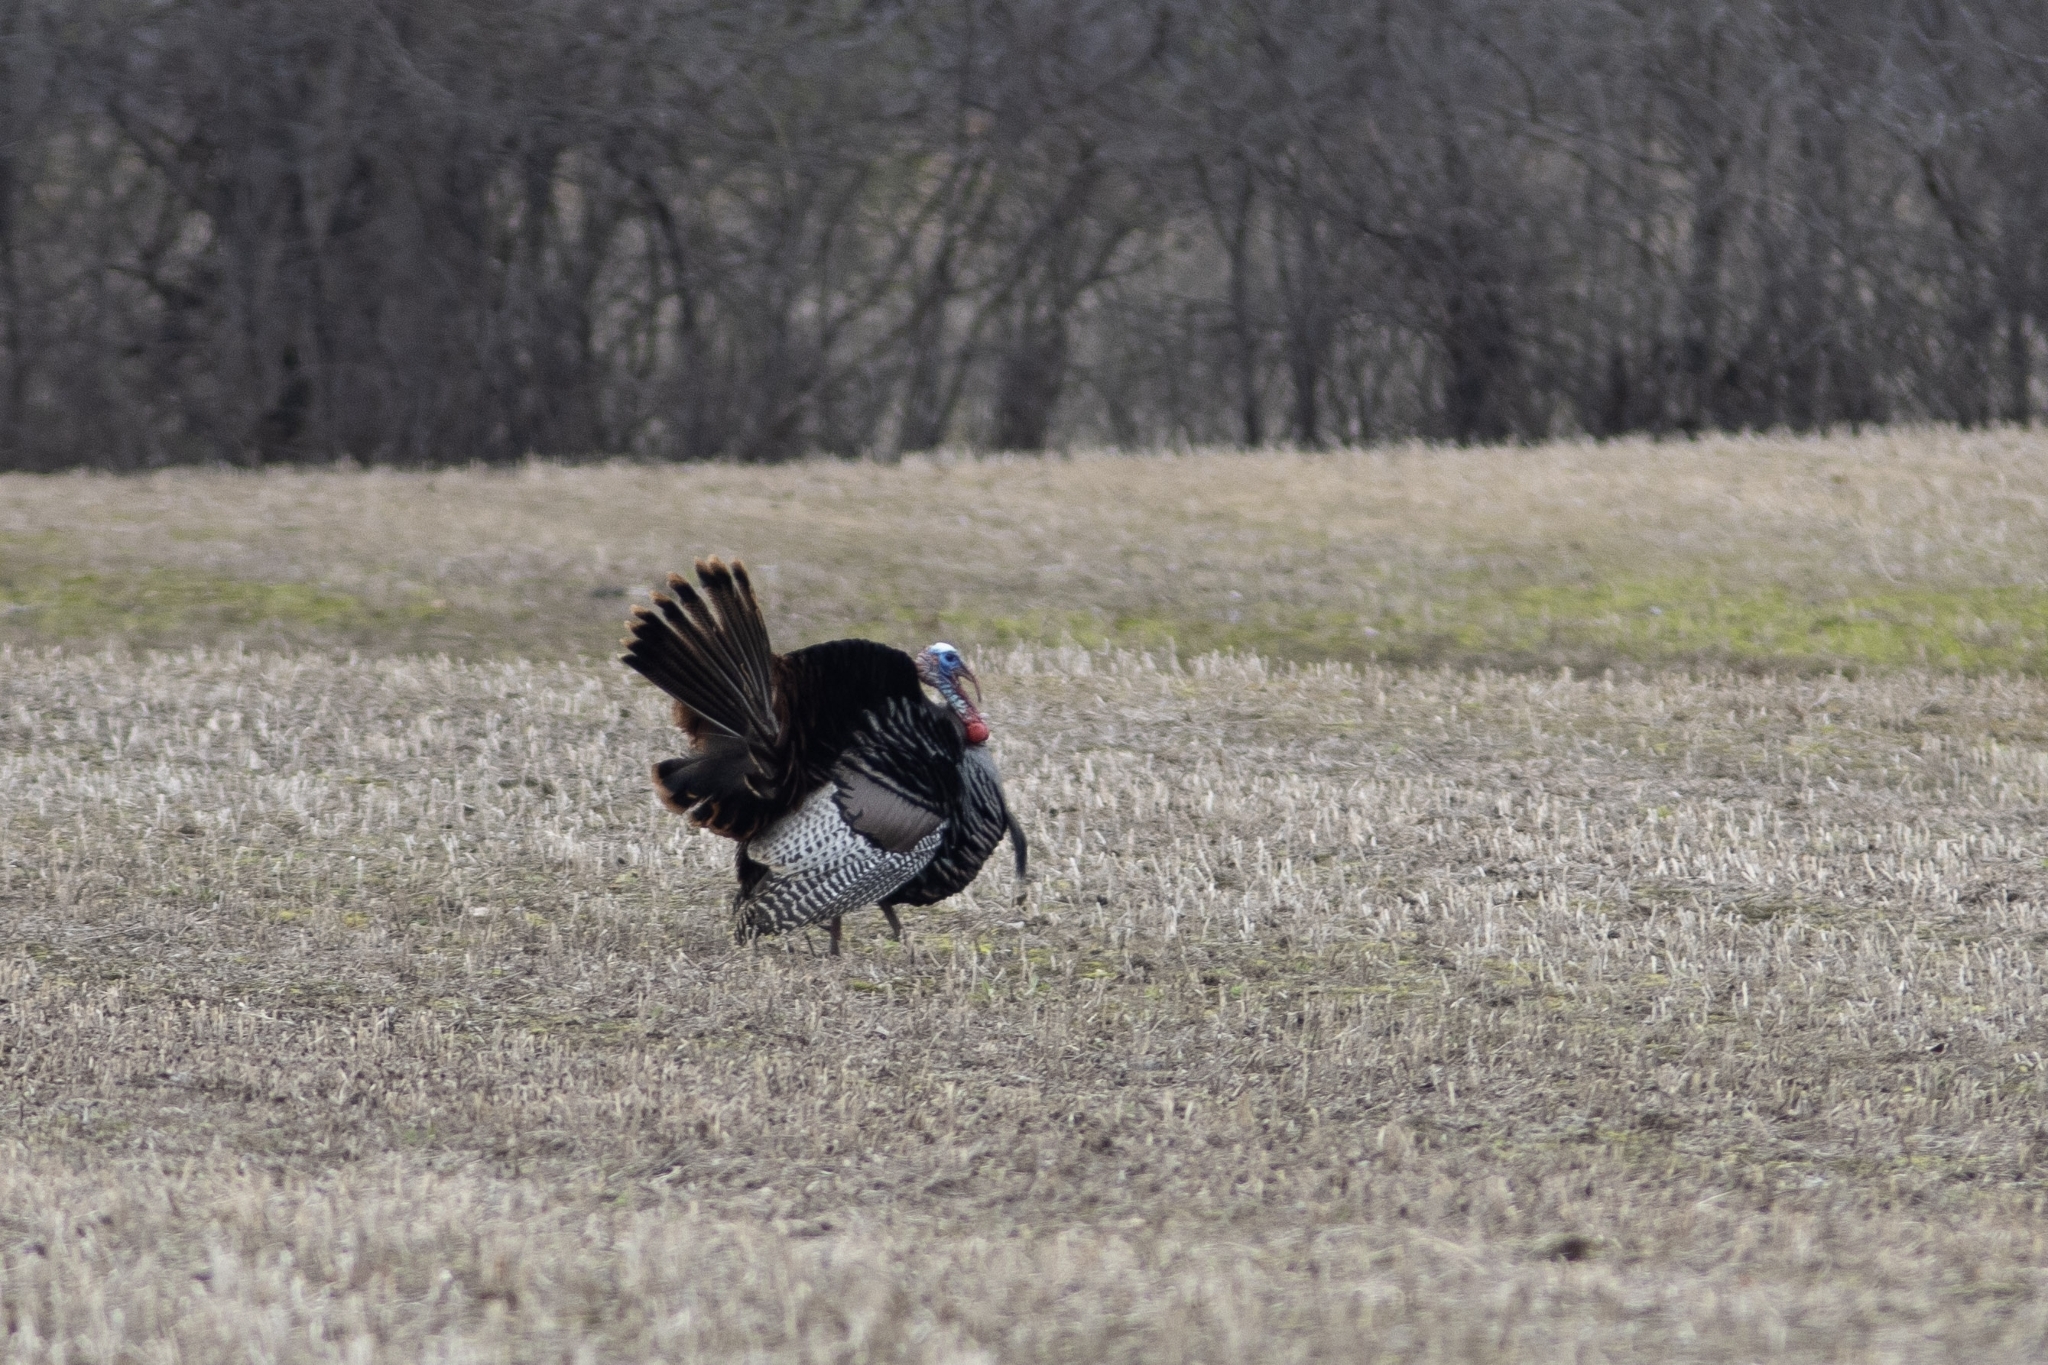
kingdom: Animalia
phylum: Chordata
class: Aves
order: Galliformes
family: Phasianidae
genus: Meleagris
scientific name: Meleagris gallopavo
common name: Wild turkey
